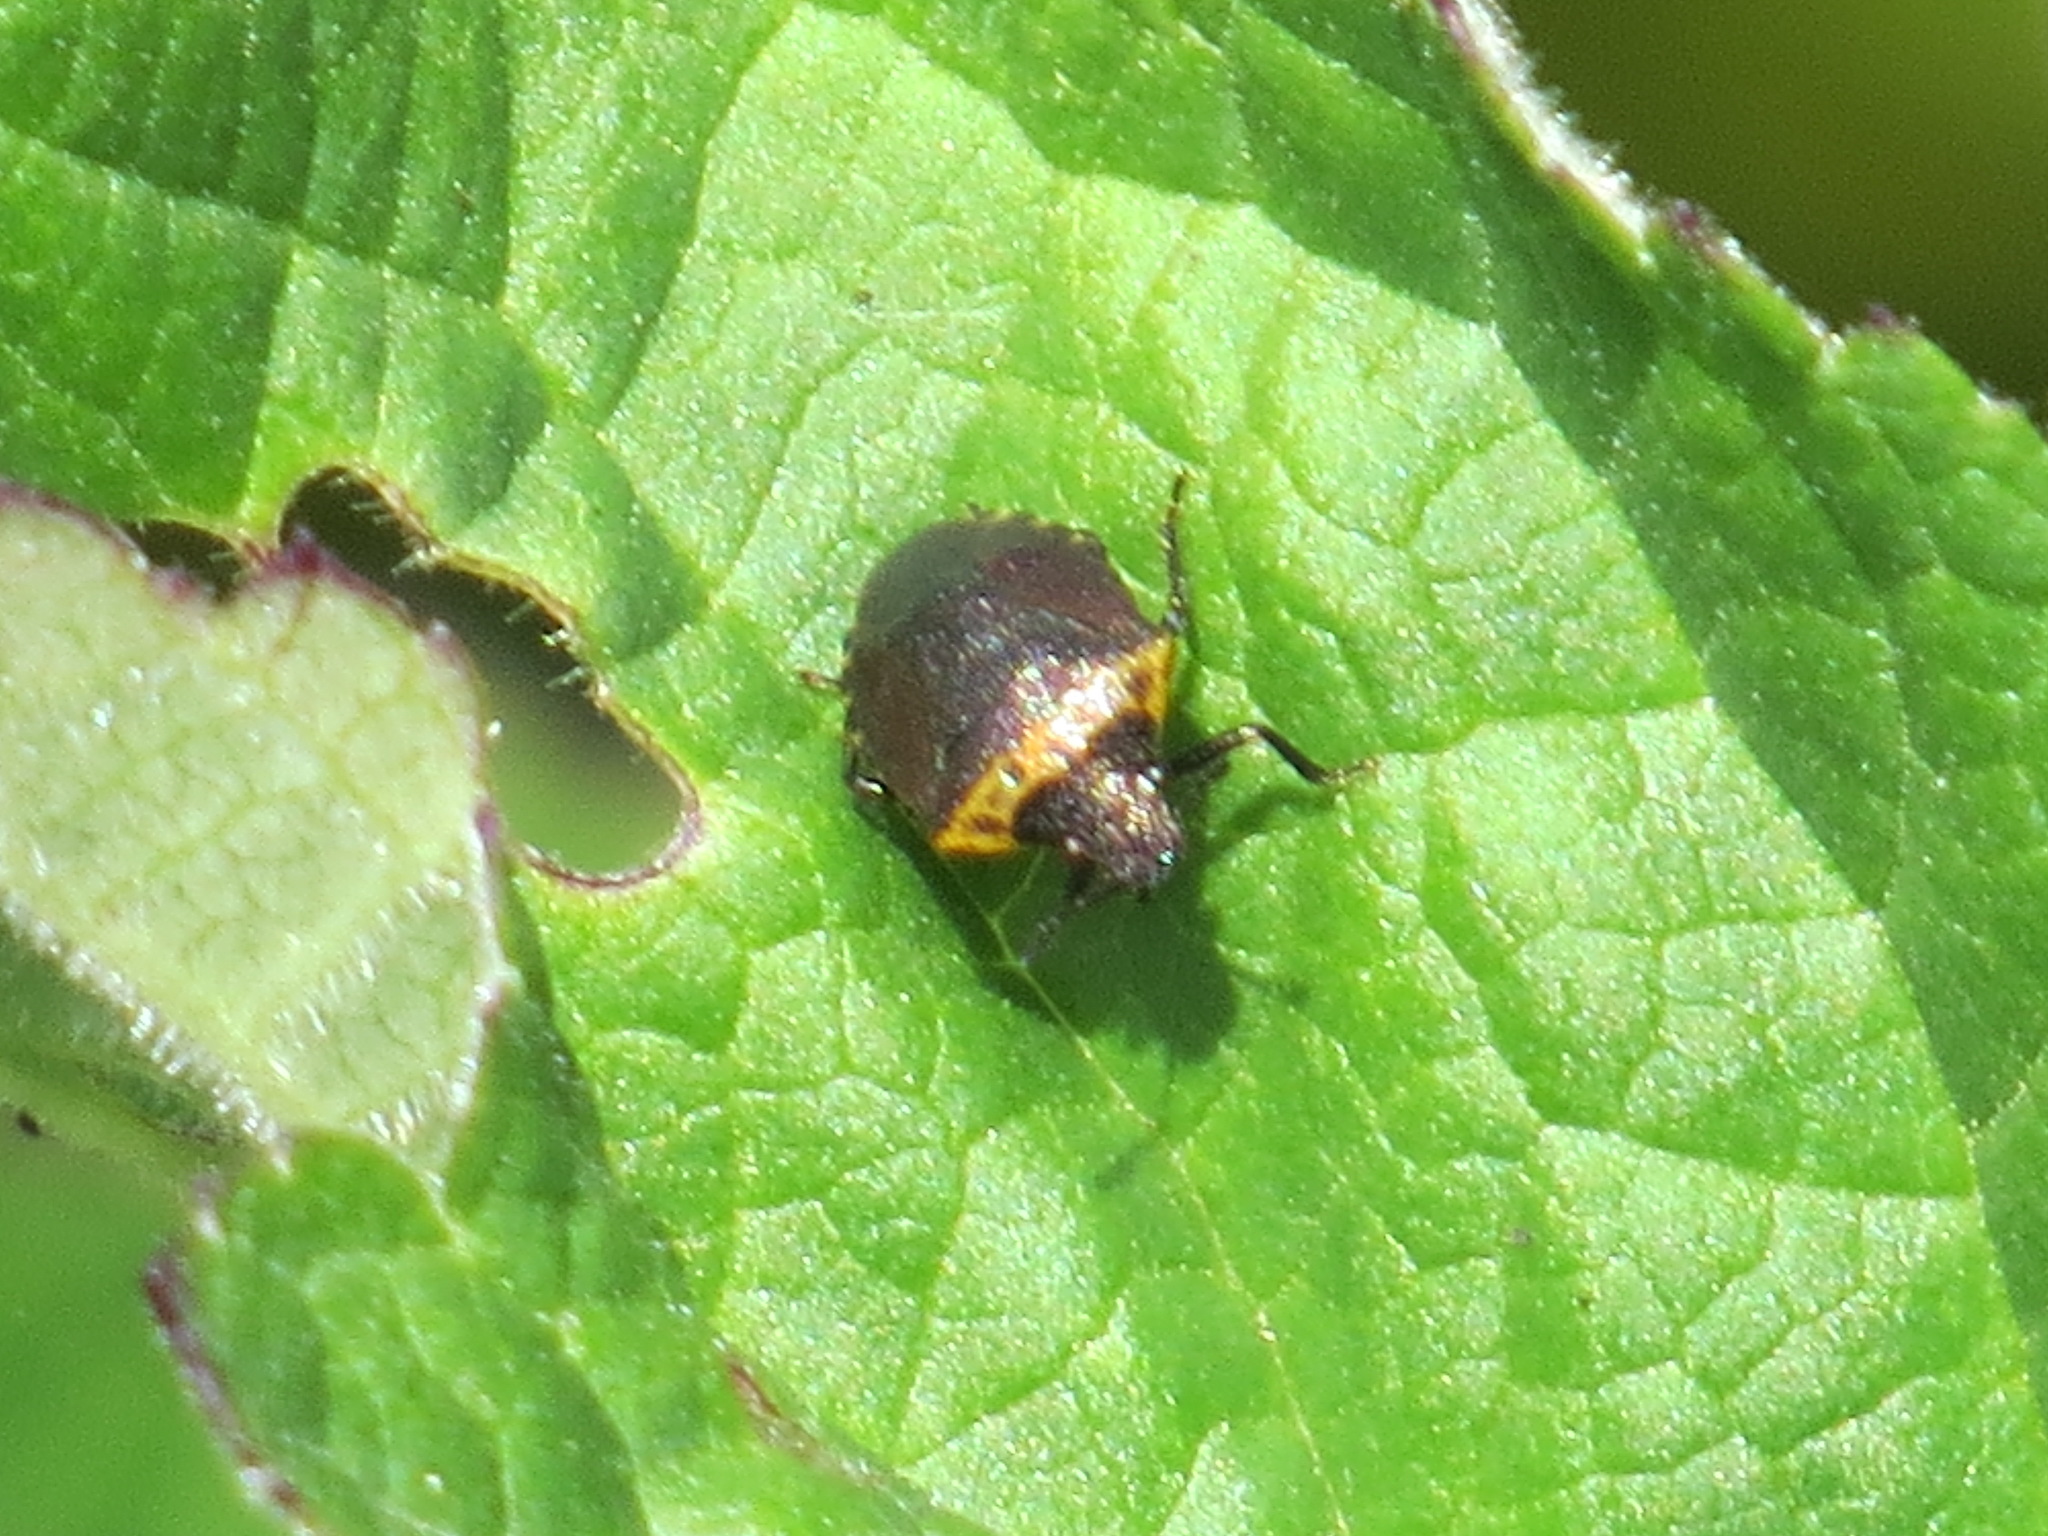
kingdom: Animalia
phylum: Arthropoda
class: Insecta
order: Hemiptera
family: Pentatomidae
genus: Cosmopepla
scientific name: Cosmopepla uhleri
